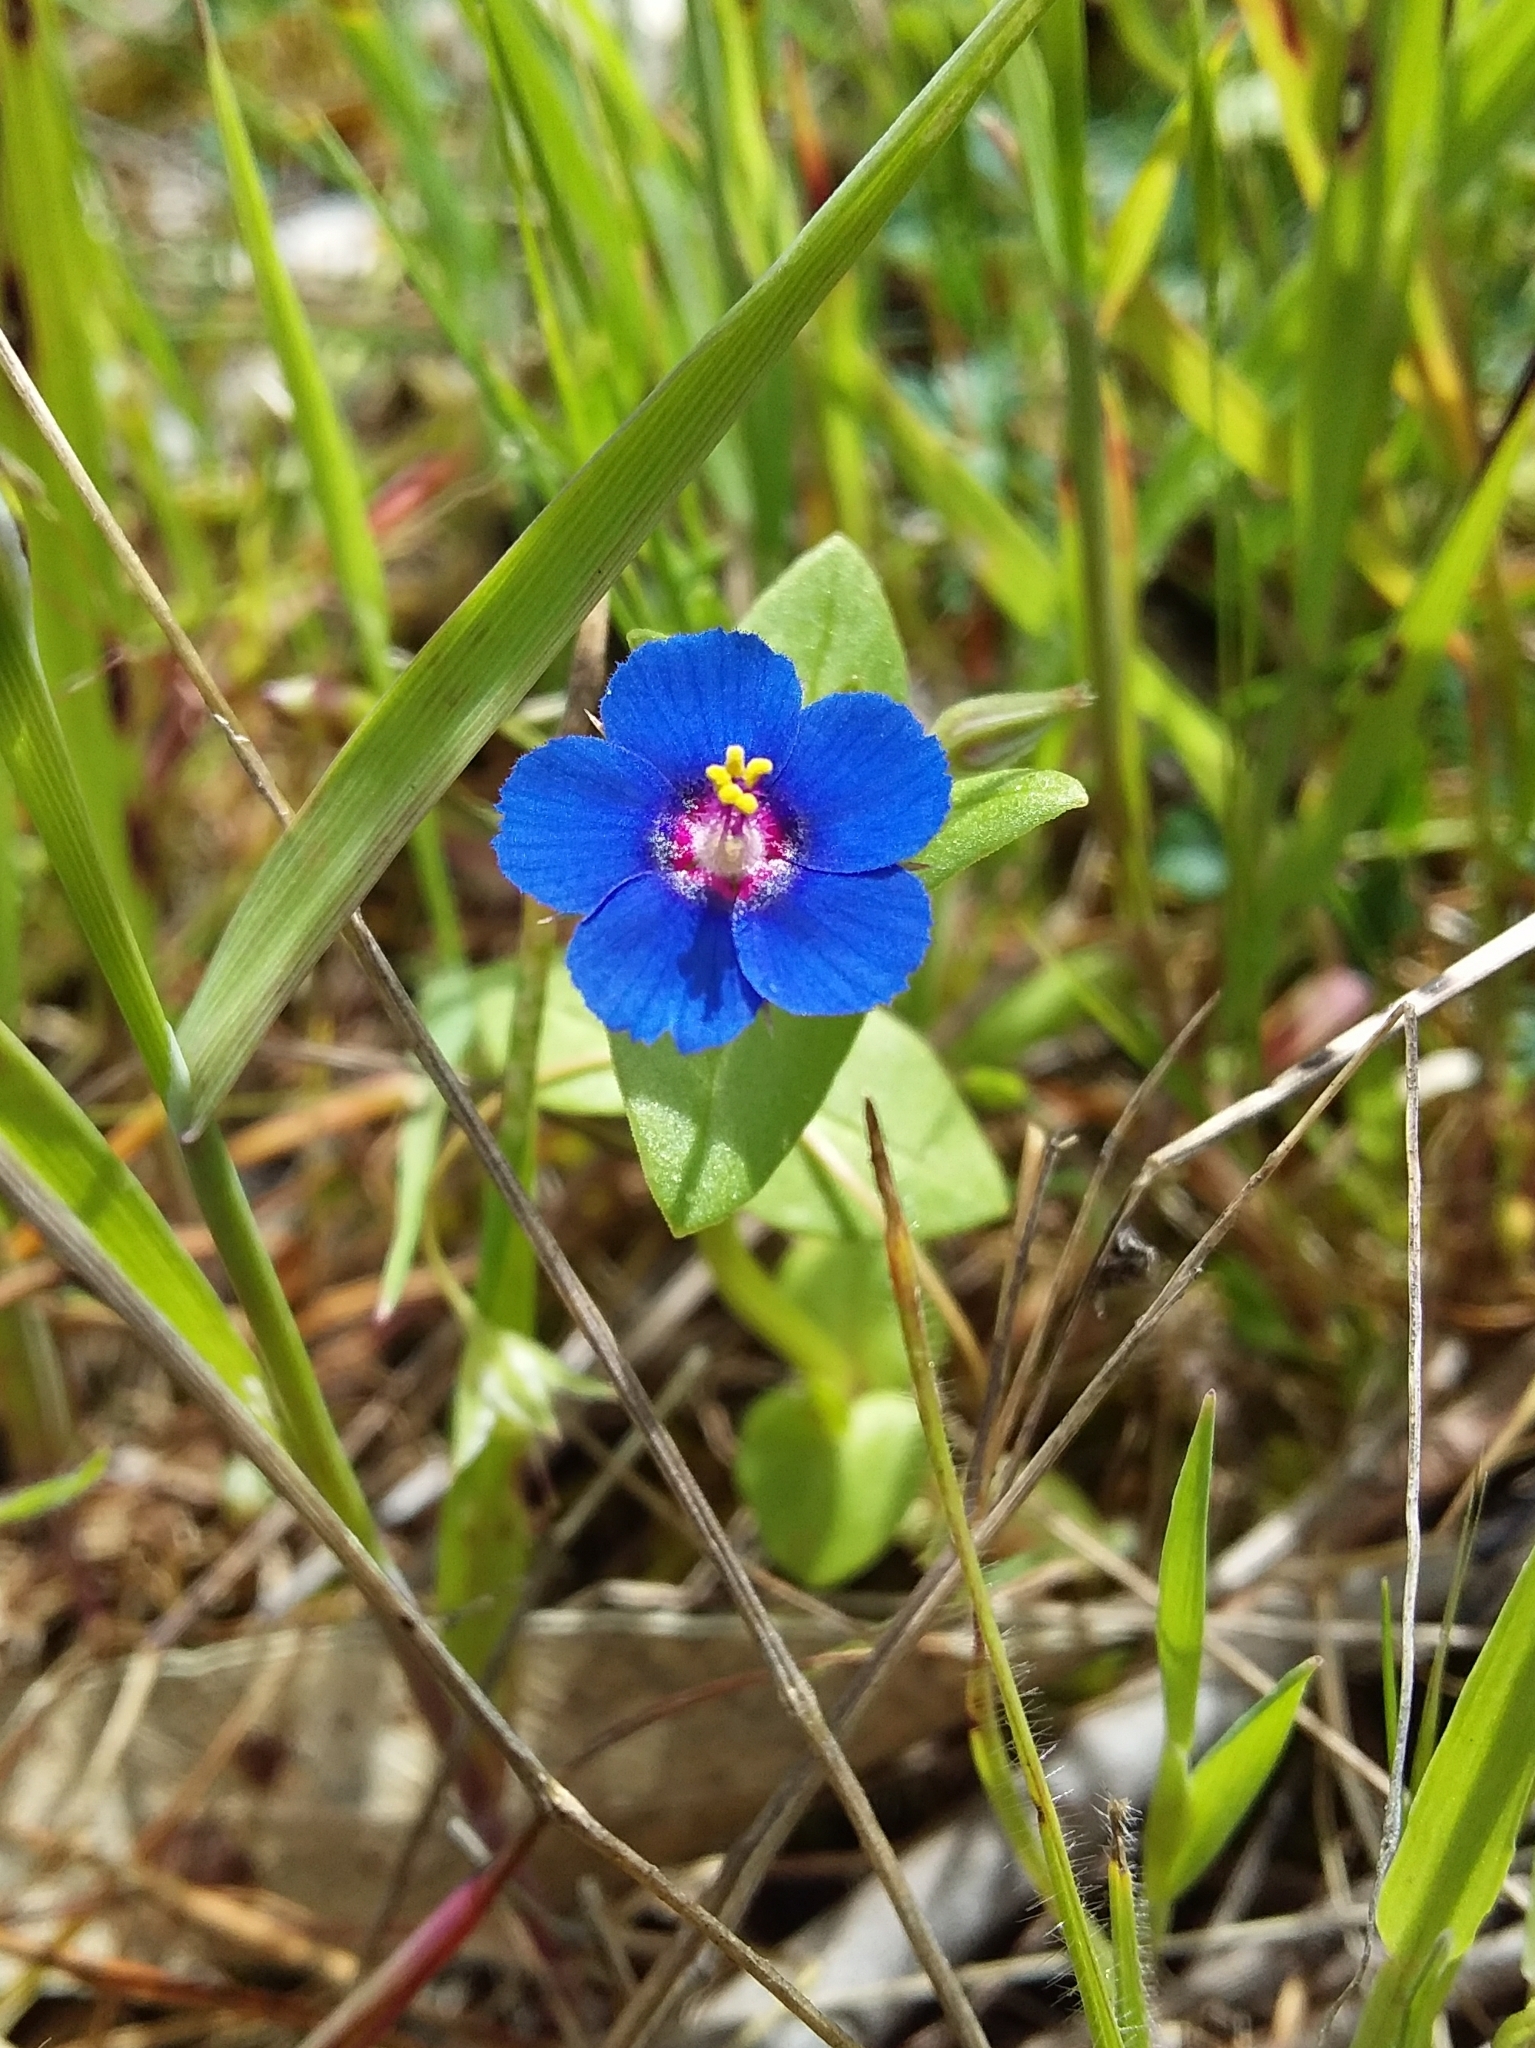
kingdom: Plantae
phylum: Tracheophyta
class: Magnoliopsida
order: Ericales
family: Primulaceae
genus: Lysimachia
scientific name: Lysimachia loeflingii
